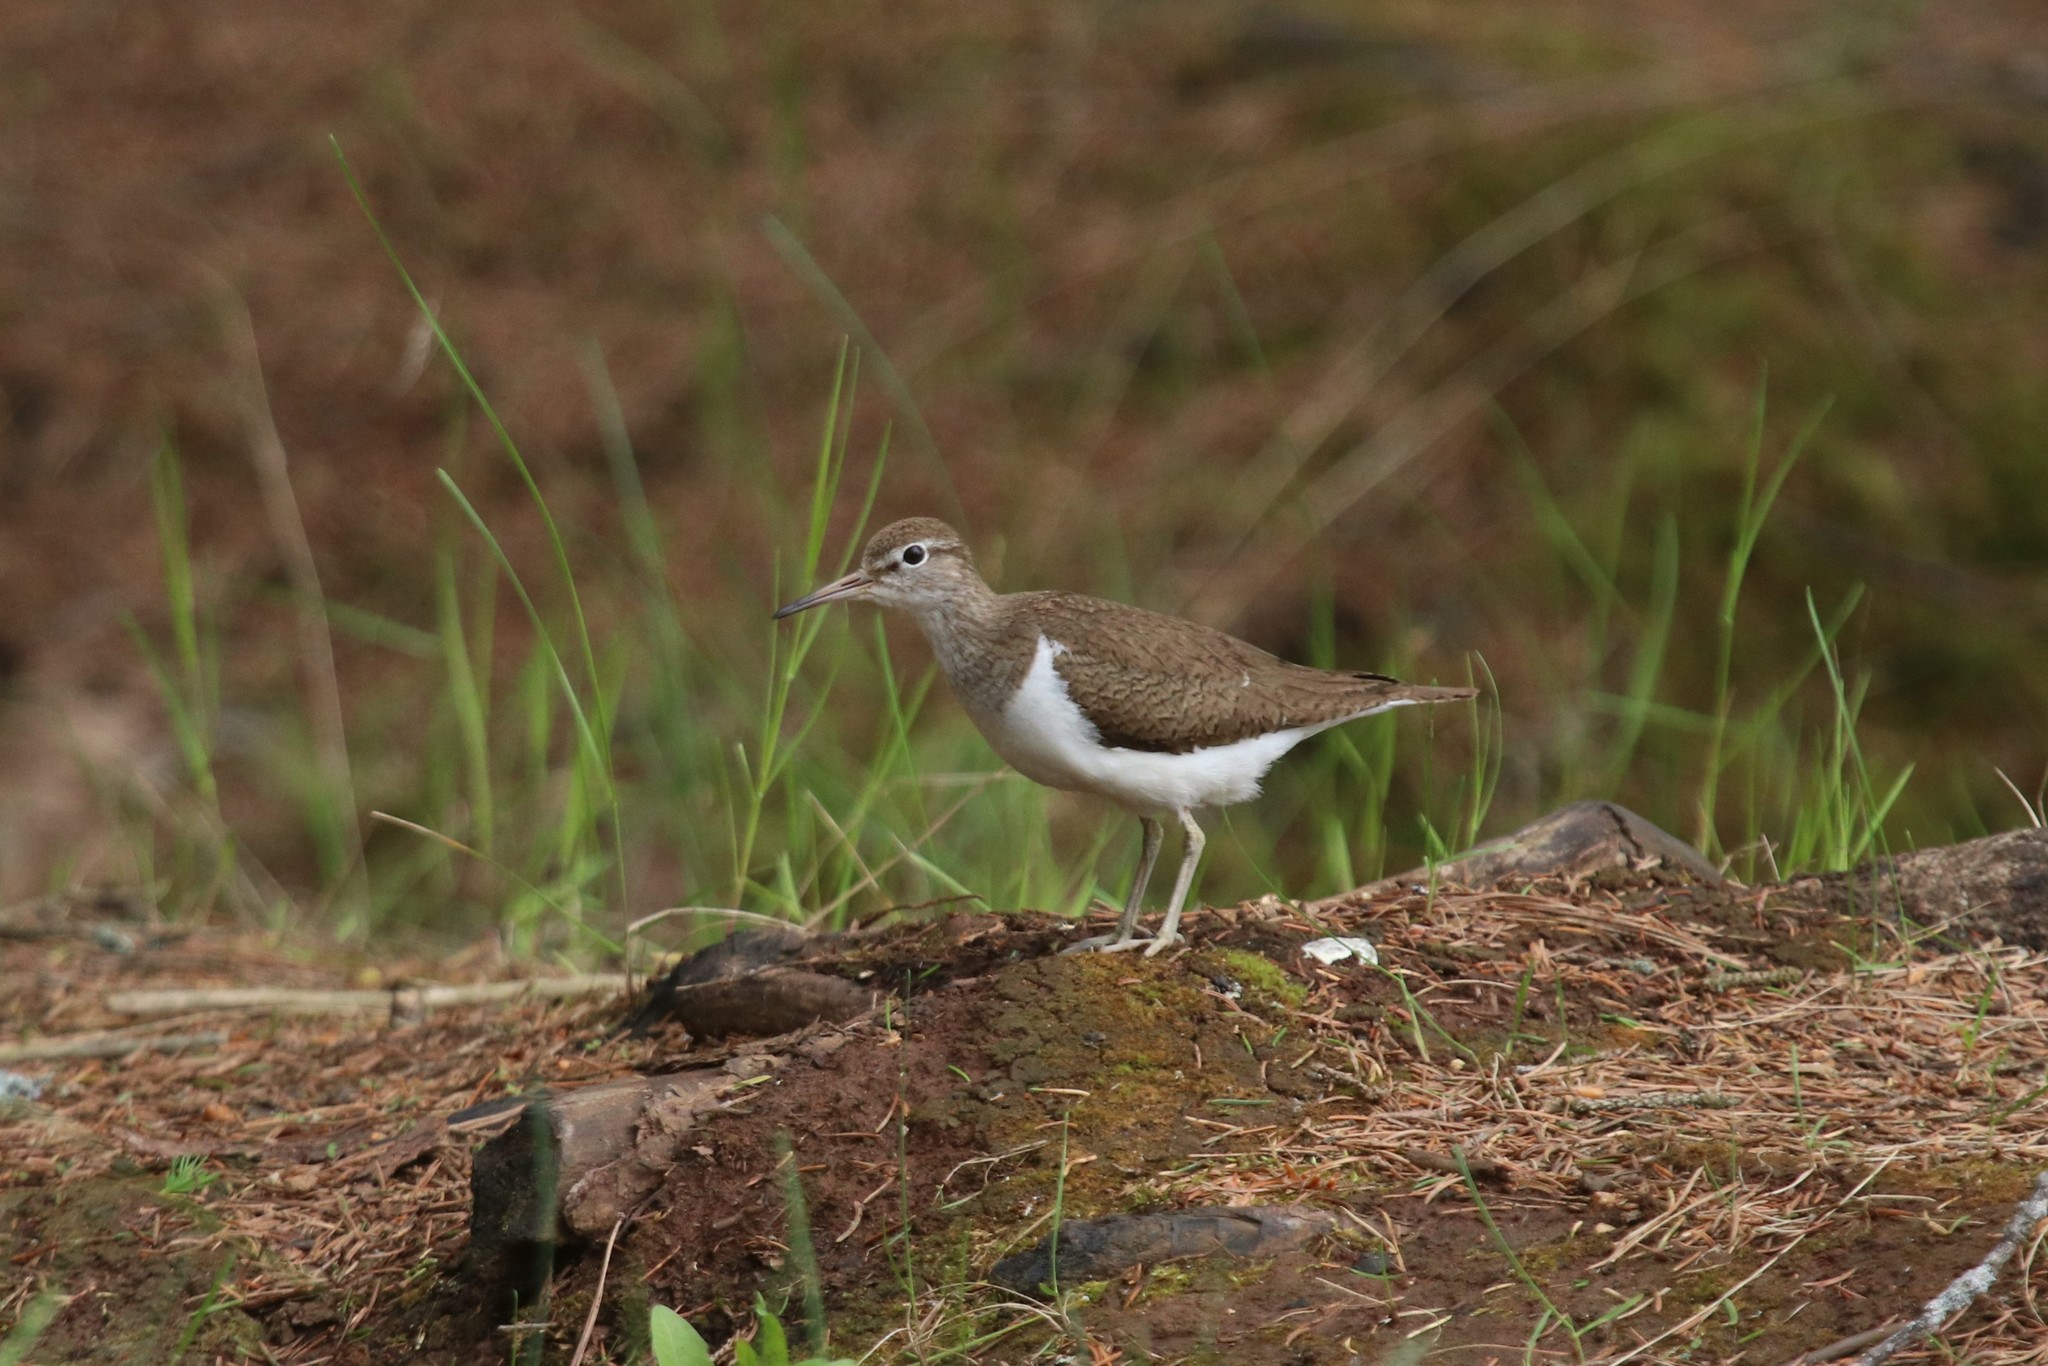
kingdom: Animalia
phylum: Chordata
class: Aves
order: Charadriiformes
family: Scolopacidae
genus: Actitis
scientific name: Actitis hypoleucos
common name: Common sandpiper
